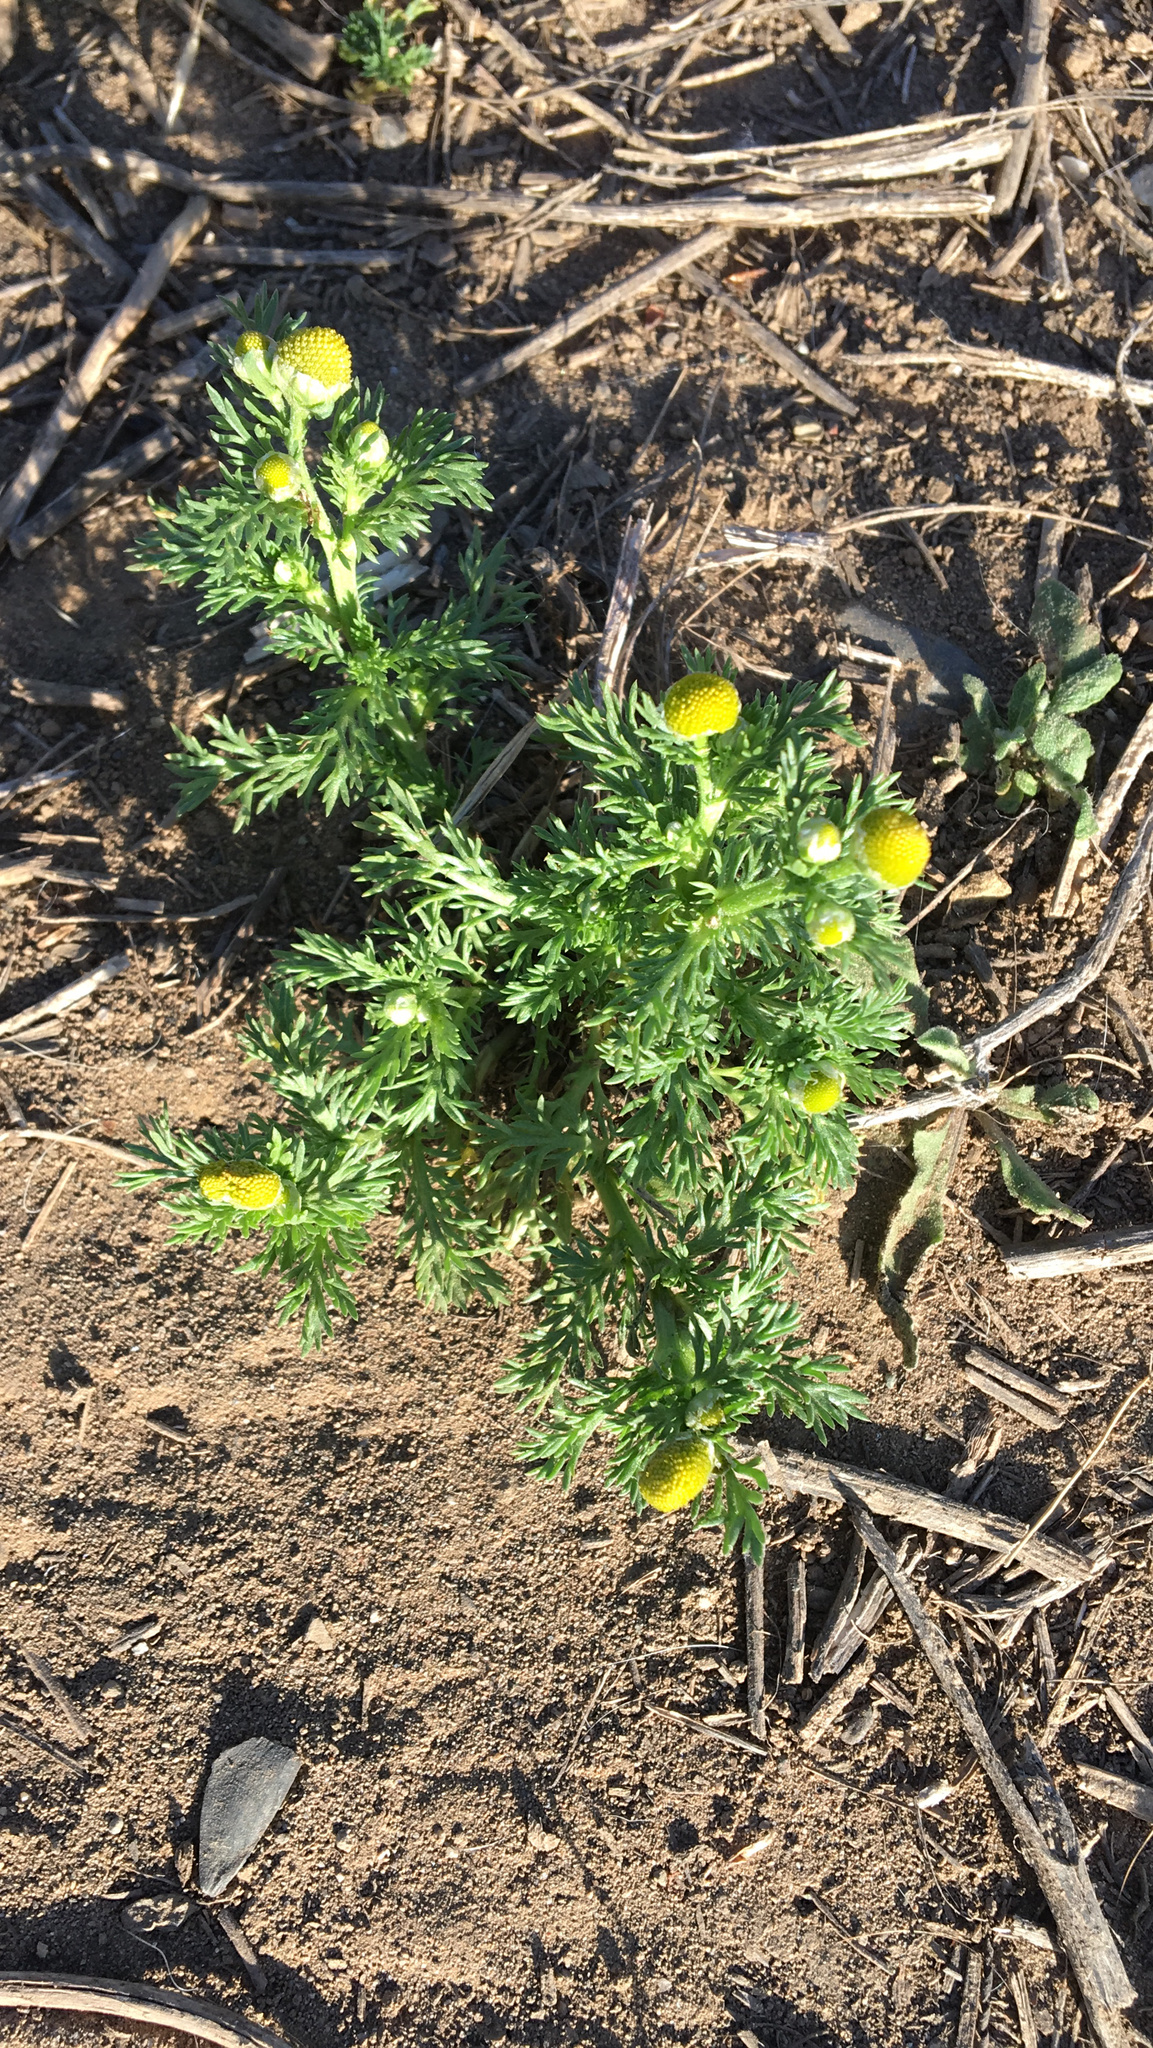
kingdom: Plantae
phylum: Tracheophyta
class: Magnoliopsida
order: Asterales
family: Asteraceae
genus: Matricaria
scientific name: Matricaria discoidea
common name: Disc mayweed
